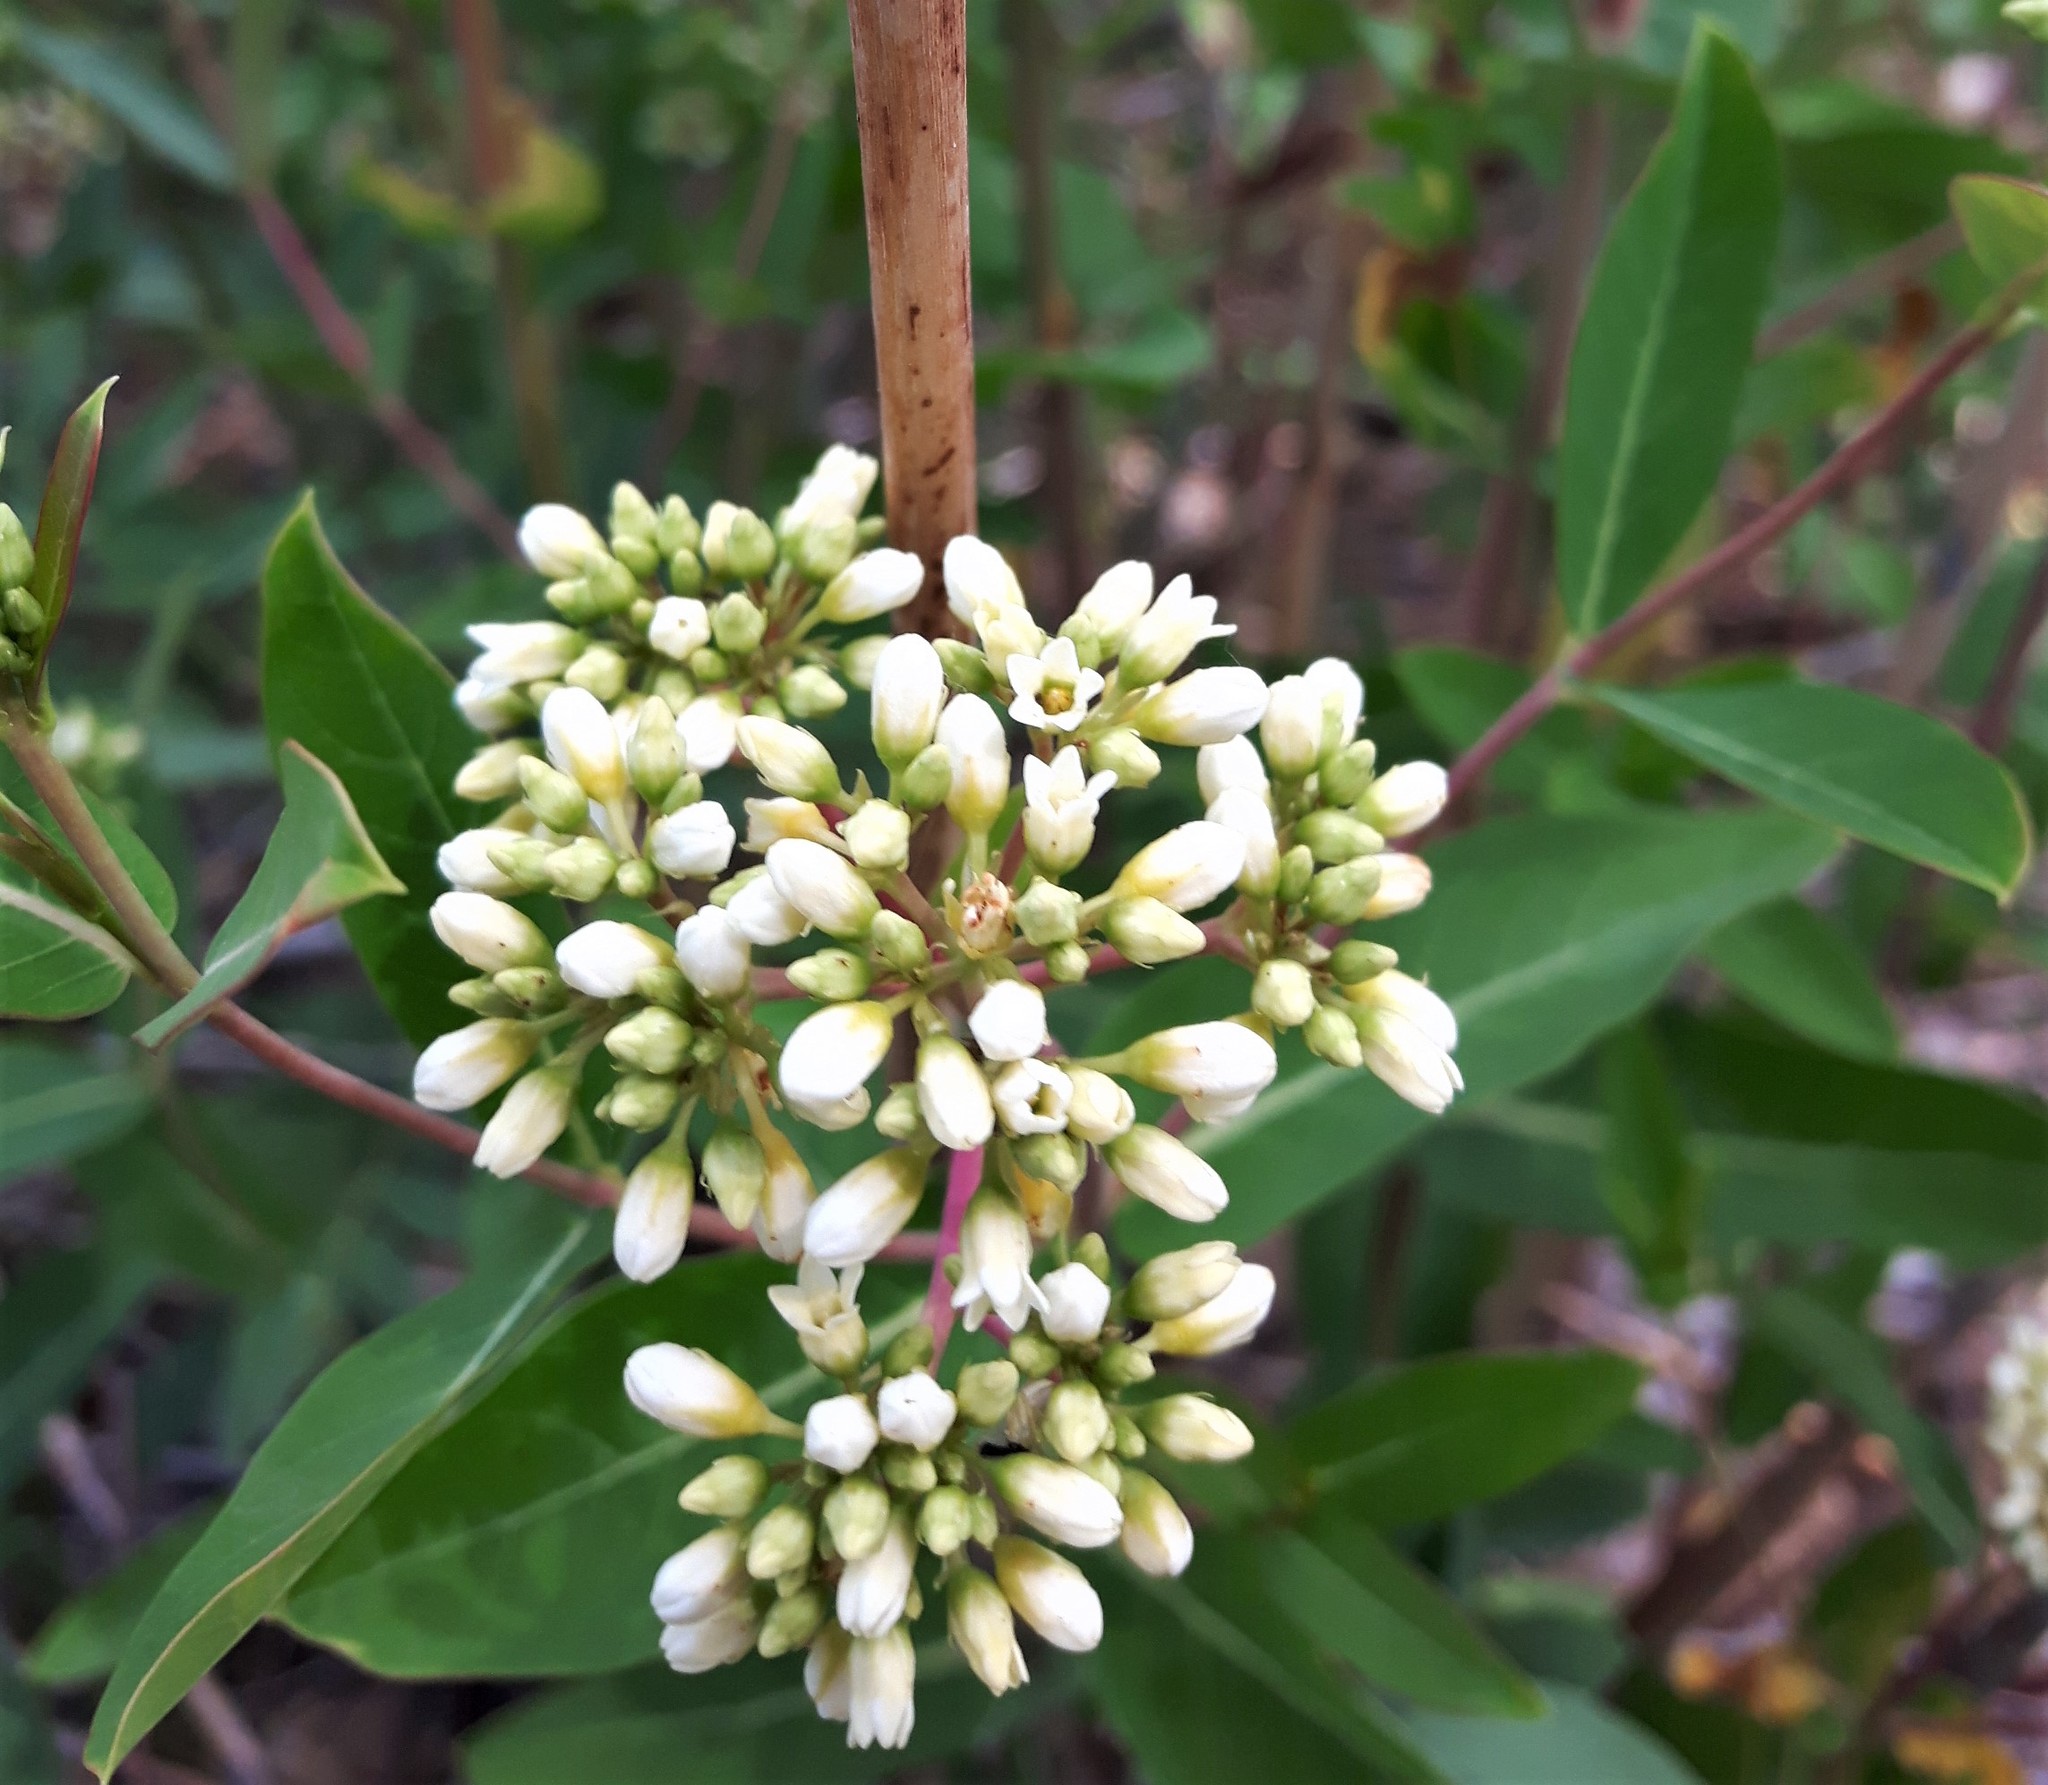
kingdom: Plantae
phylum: Tracheophyta
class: Magnoliopsida
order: Gentianales
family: Apocynaceae
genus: Apocynum
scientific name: Apocynum cannabinum
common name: Hemp dogbane
